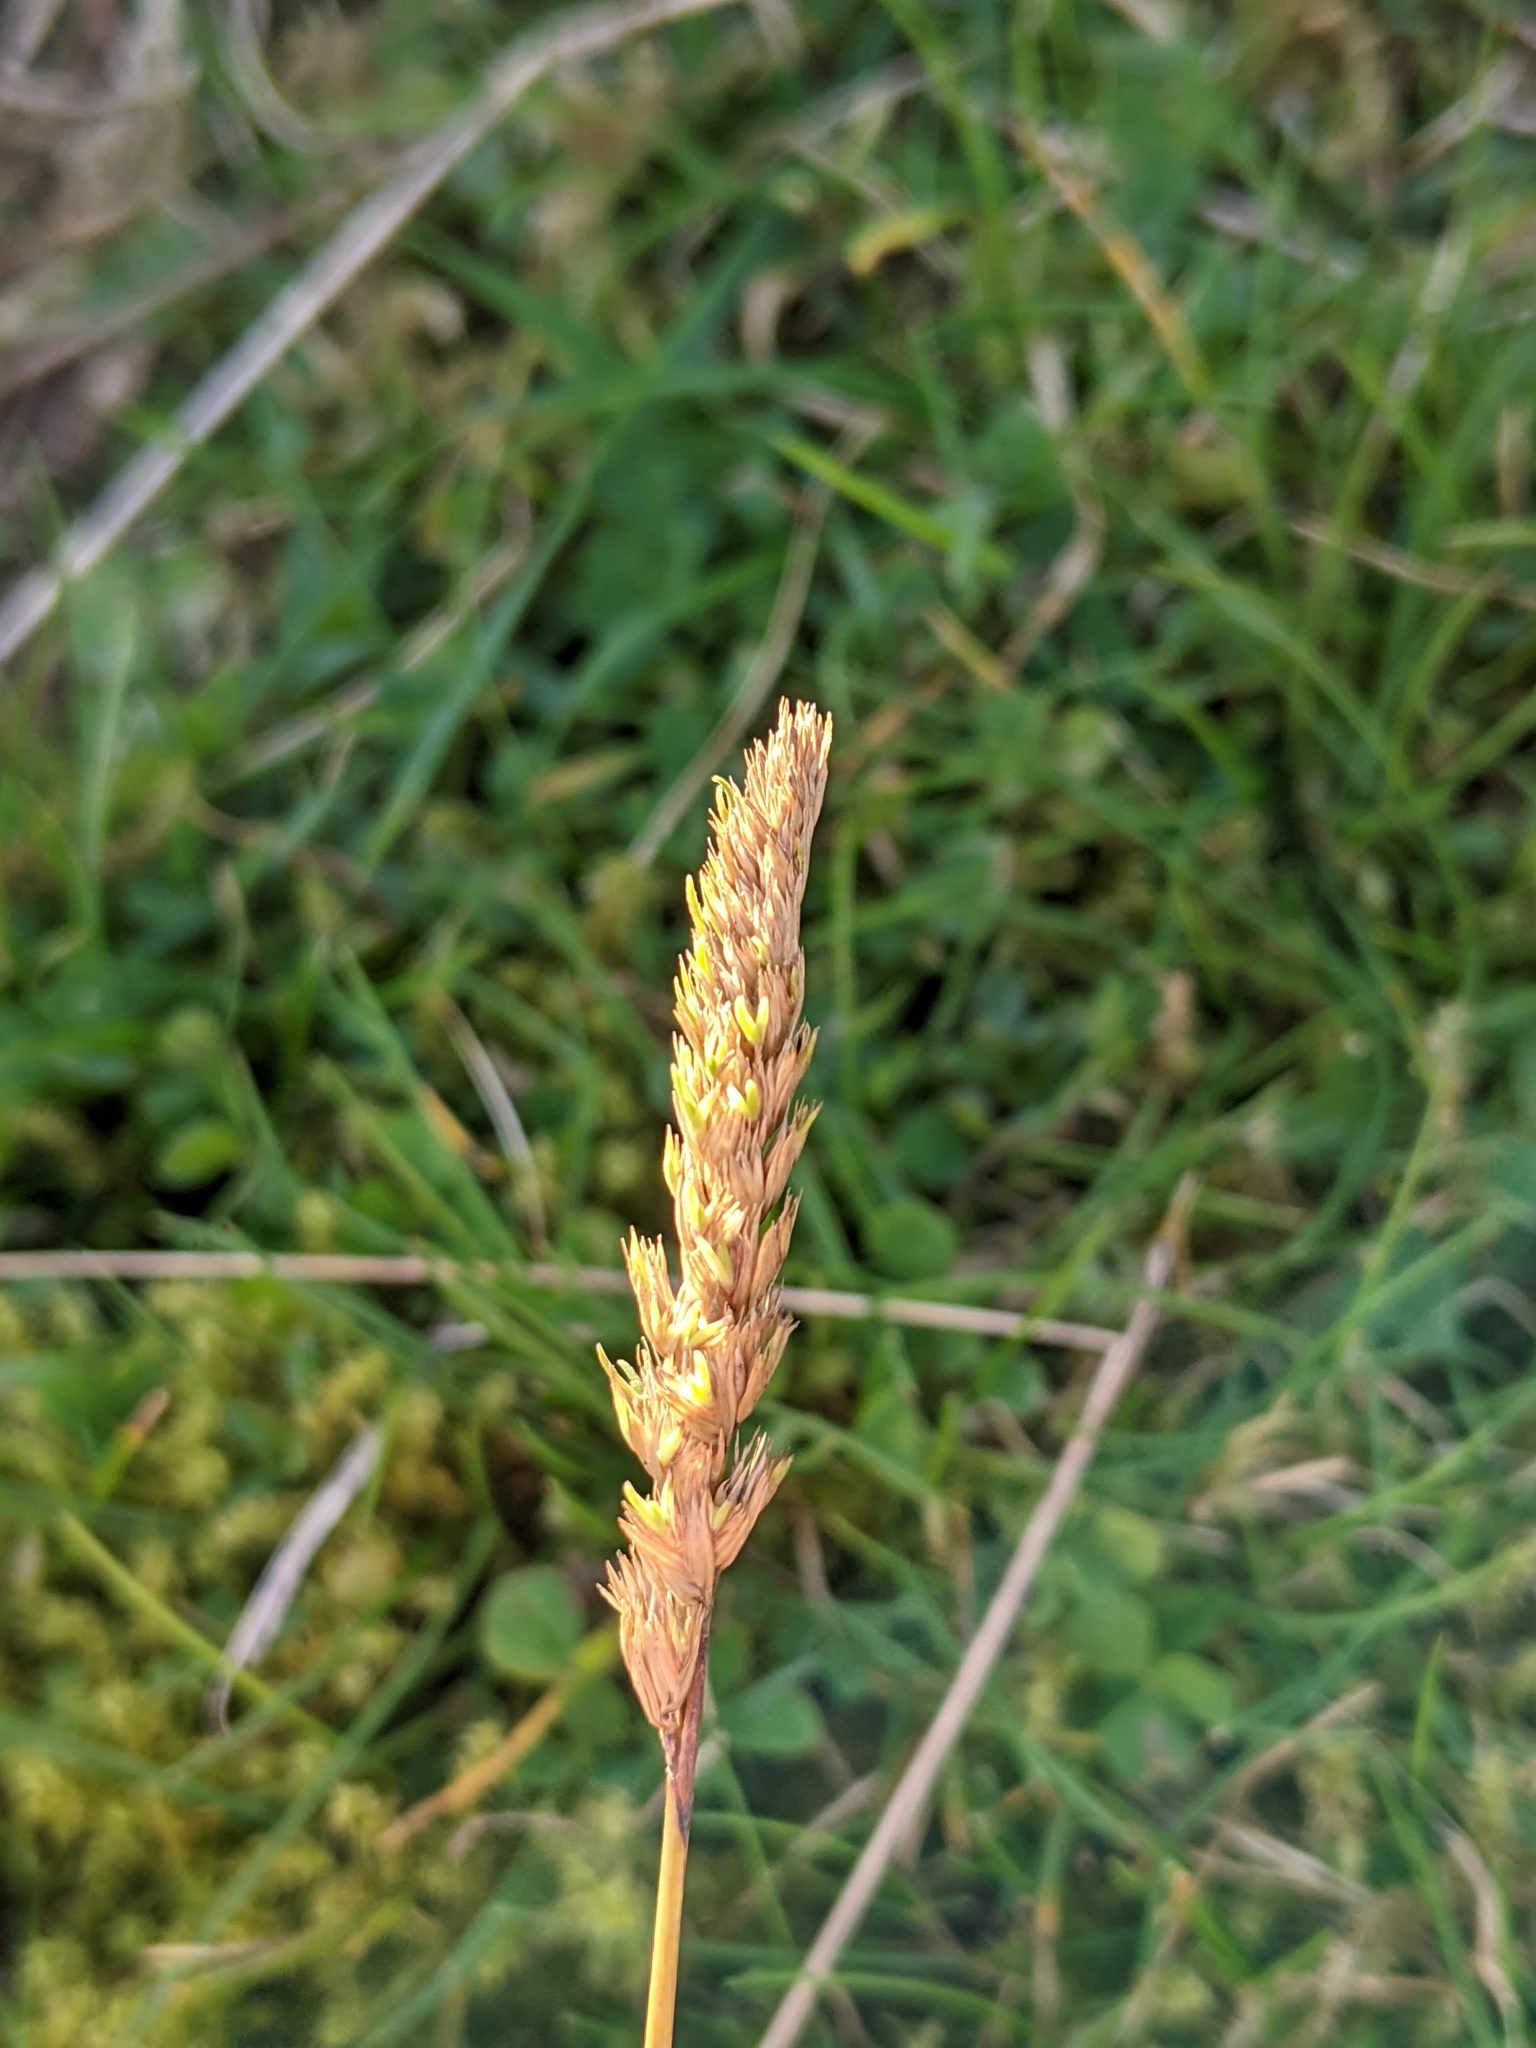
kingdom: Plantae
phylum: Tracheophyta
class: Liliopsida
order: Poales
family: Poaceae
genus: Cynosurus
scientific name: Cynosurus cristatus
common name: Crested dog's-tail
